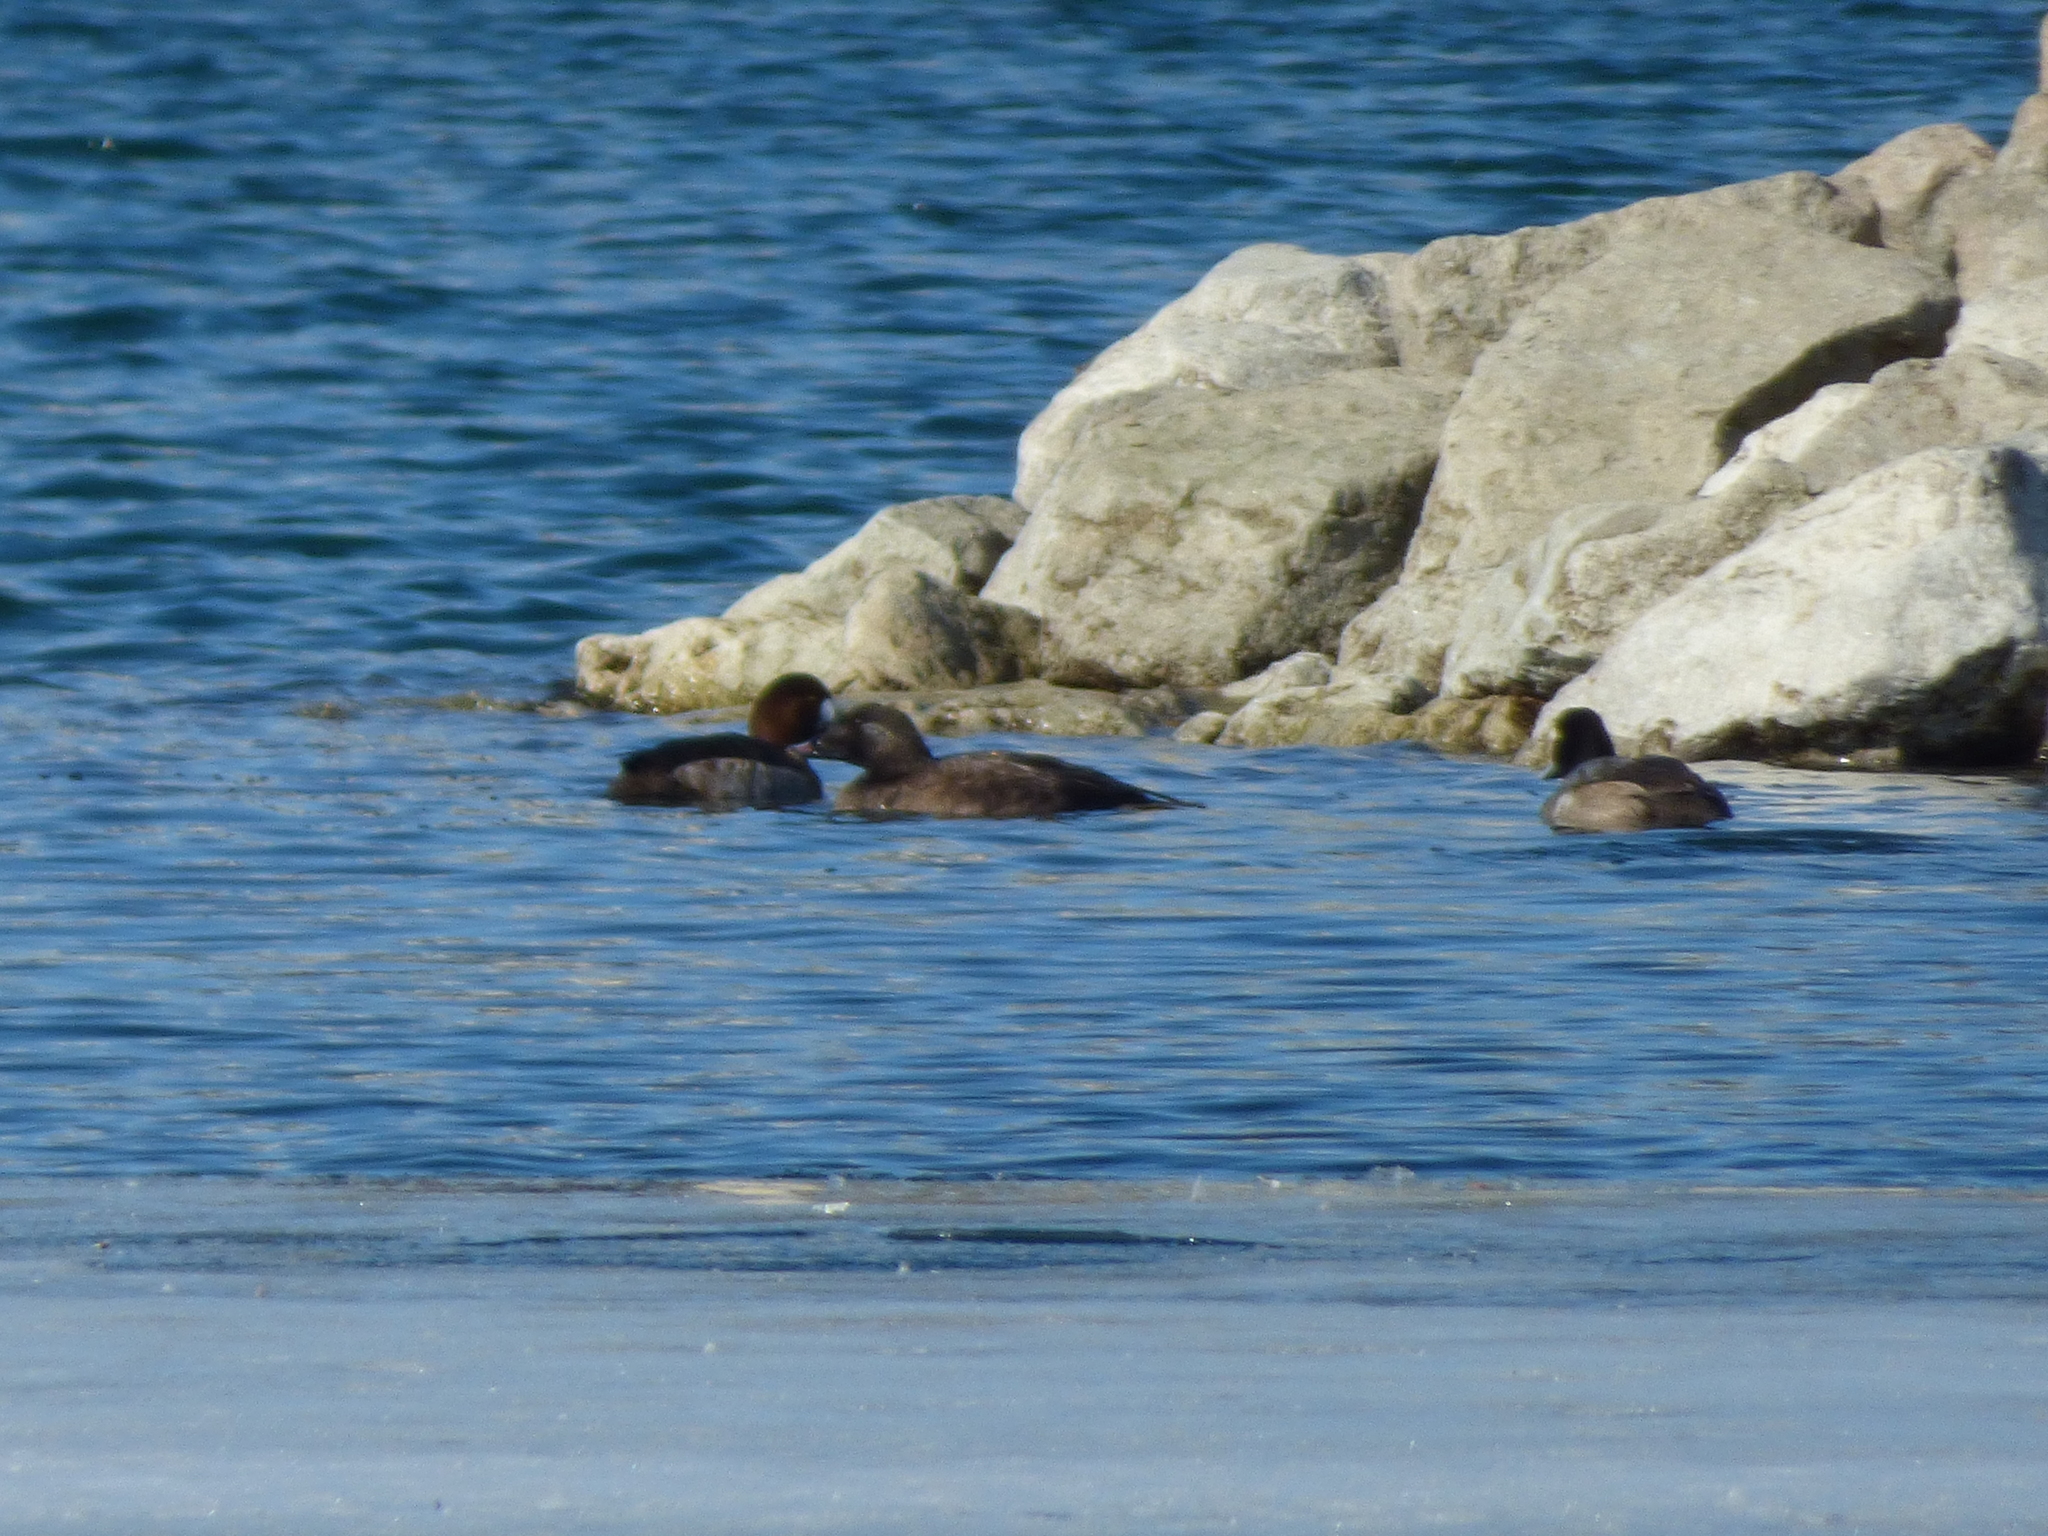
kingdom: Animalia
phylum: Chordata
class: Aves
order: Anseriformes
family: Anatidae
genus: Melanitta
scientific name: Melanitta deglandi
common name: White-winged scoter
